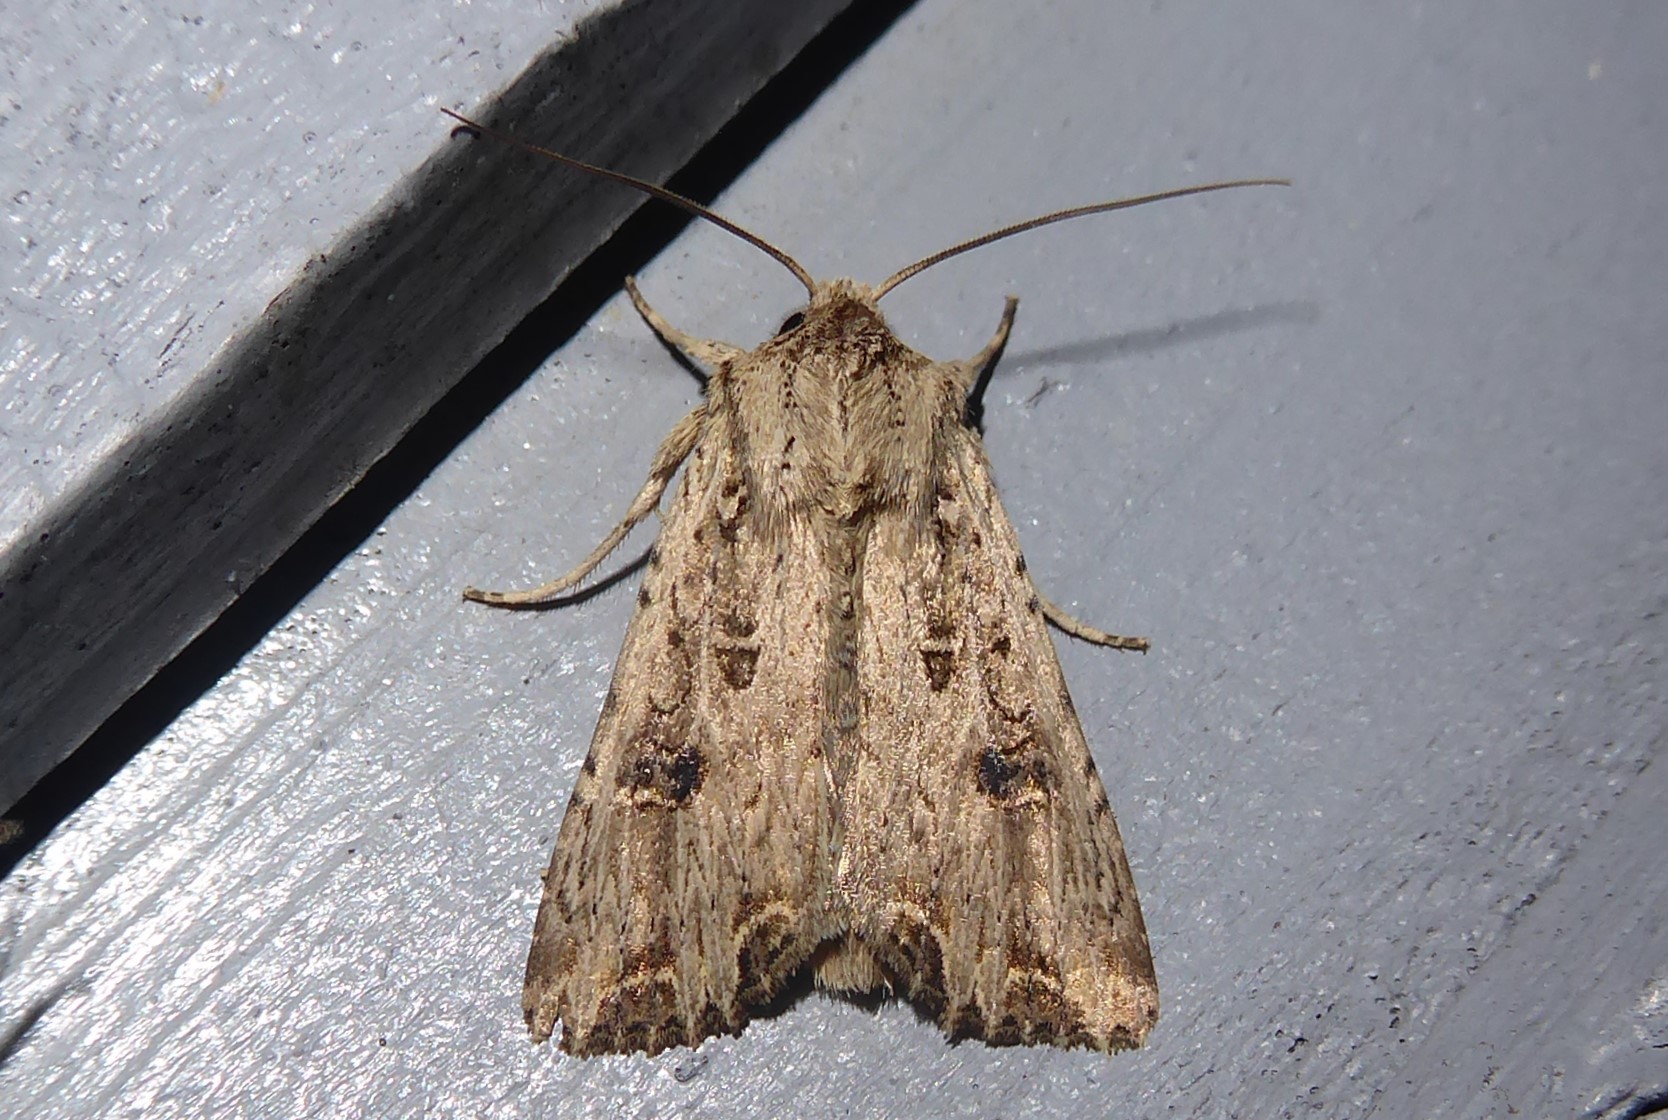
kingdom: Animalia
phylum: Arthropoda
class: Insecta
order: Lepidoptera
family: Noctuidae
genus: Ichneutica
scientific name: Ichneutica lignana
